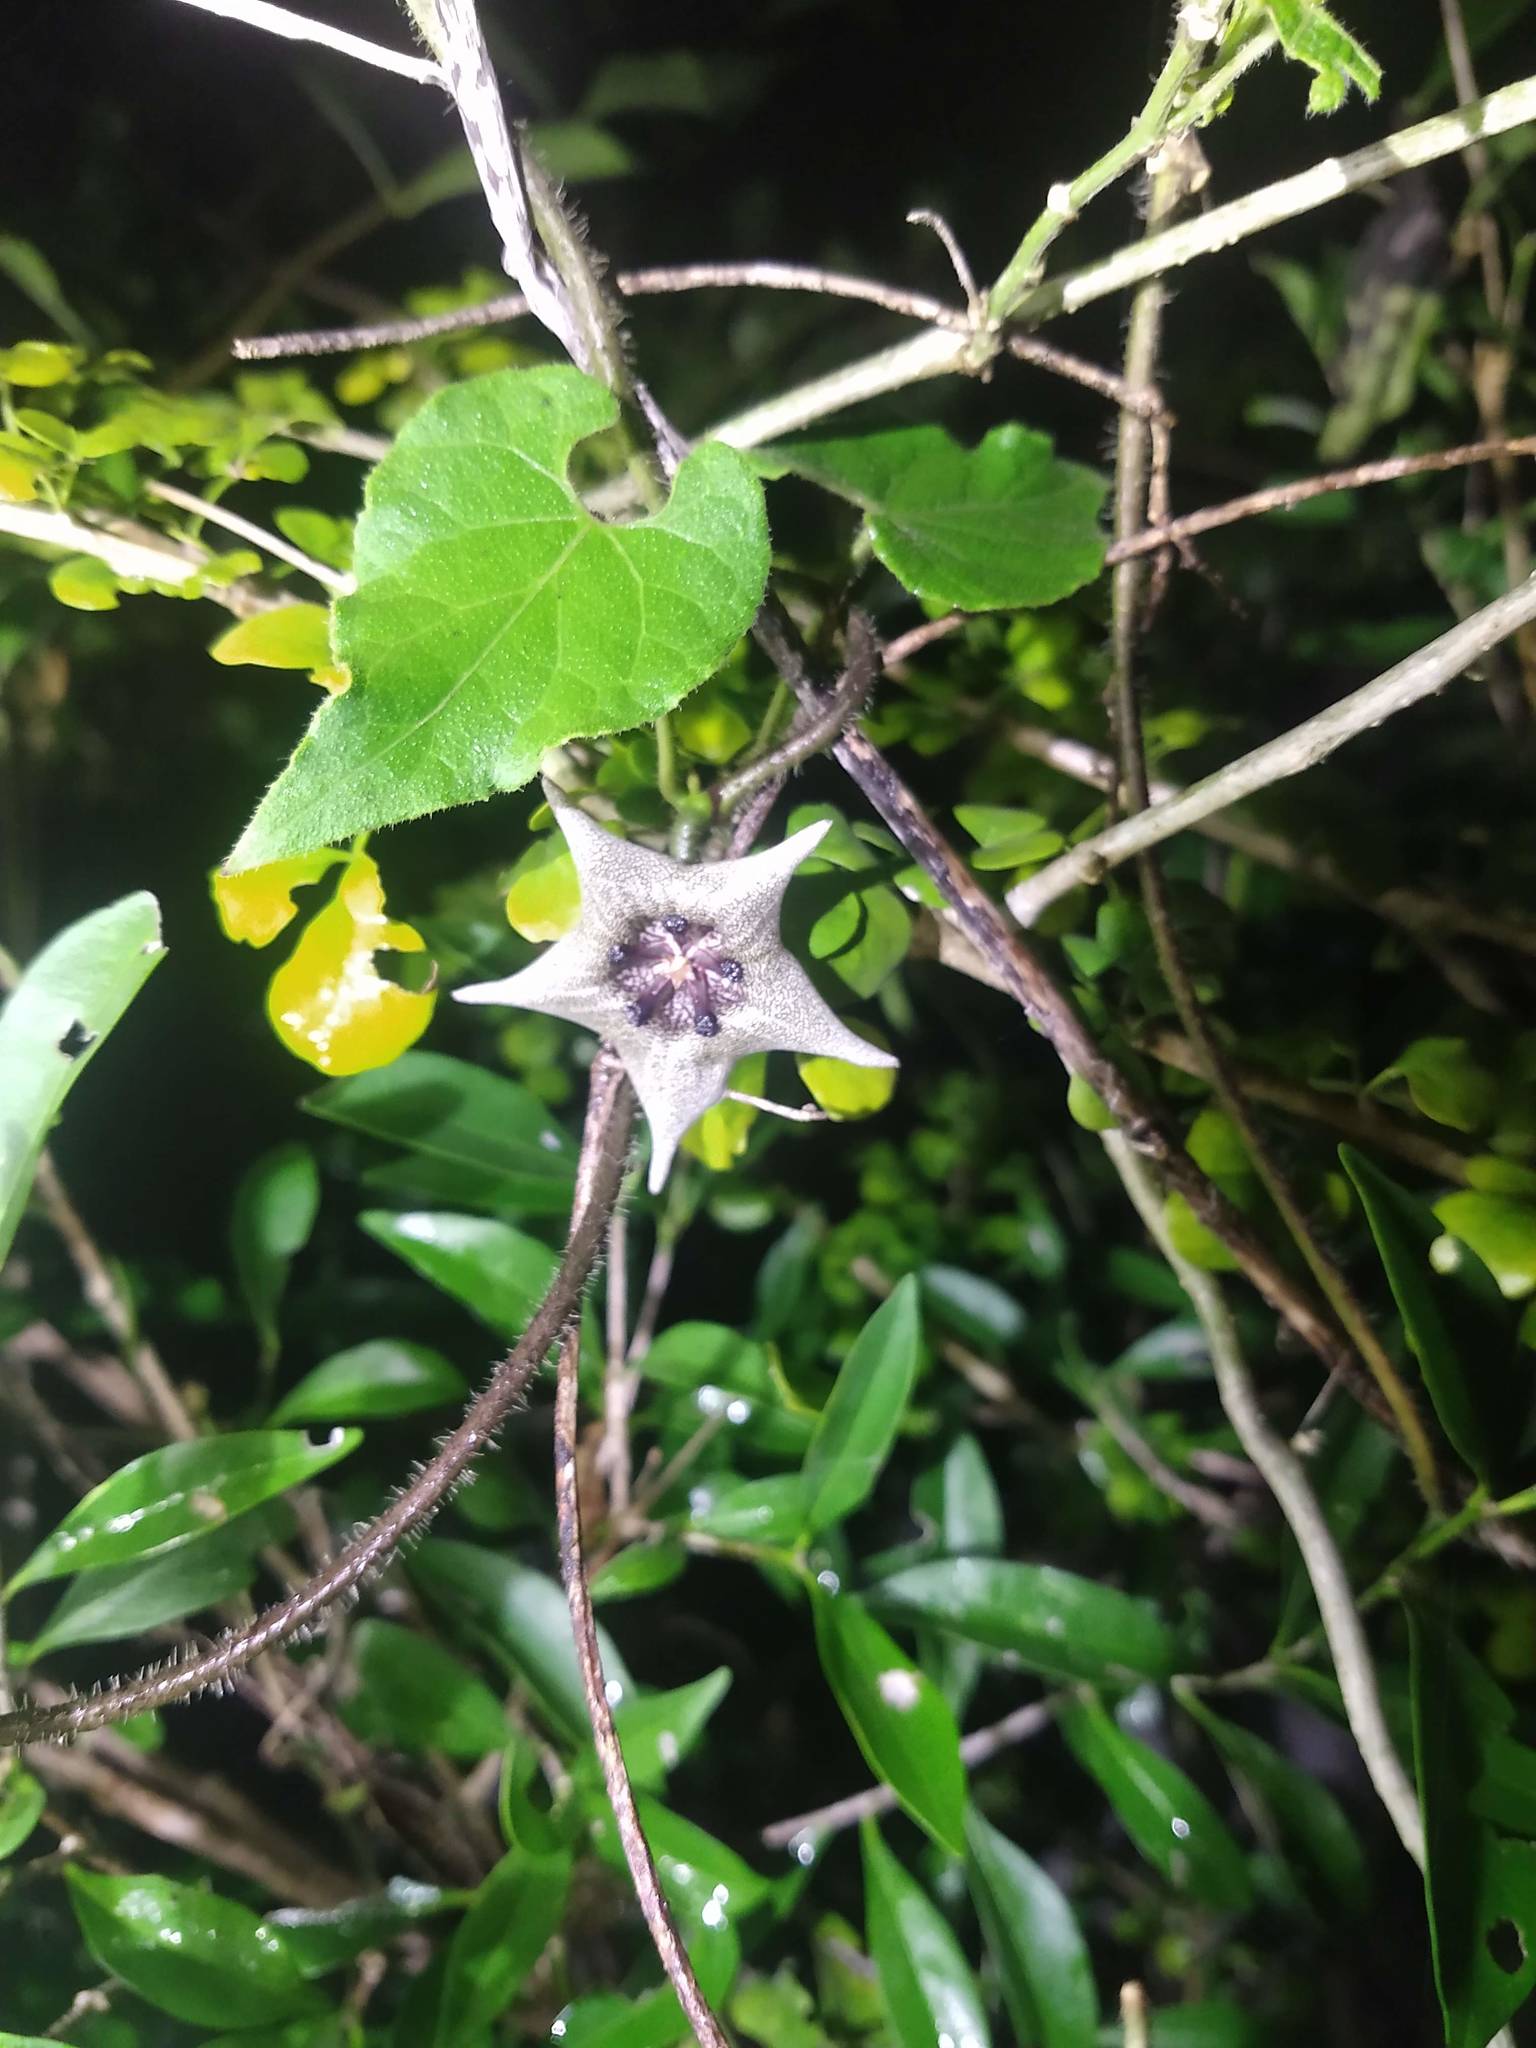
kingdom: Plantae
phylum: Tracheophyta
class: Magnoliopsida
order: Gentianales
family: Apocynaceae
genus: Dictyanthus
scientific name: Dictyanthus yucatanensis
